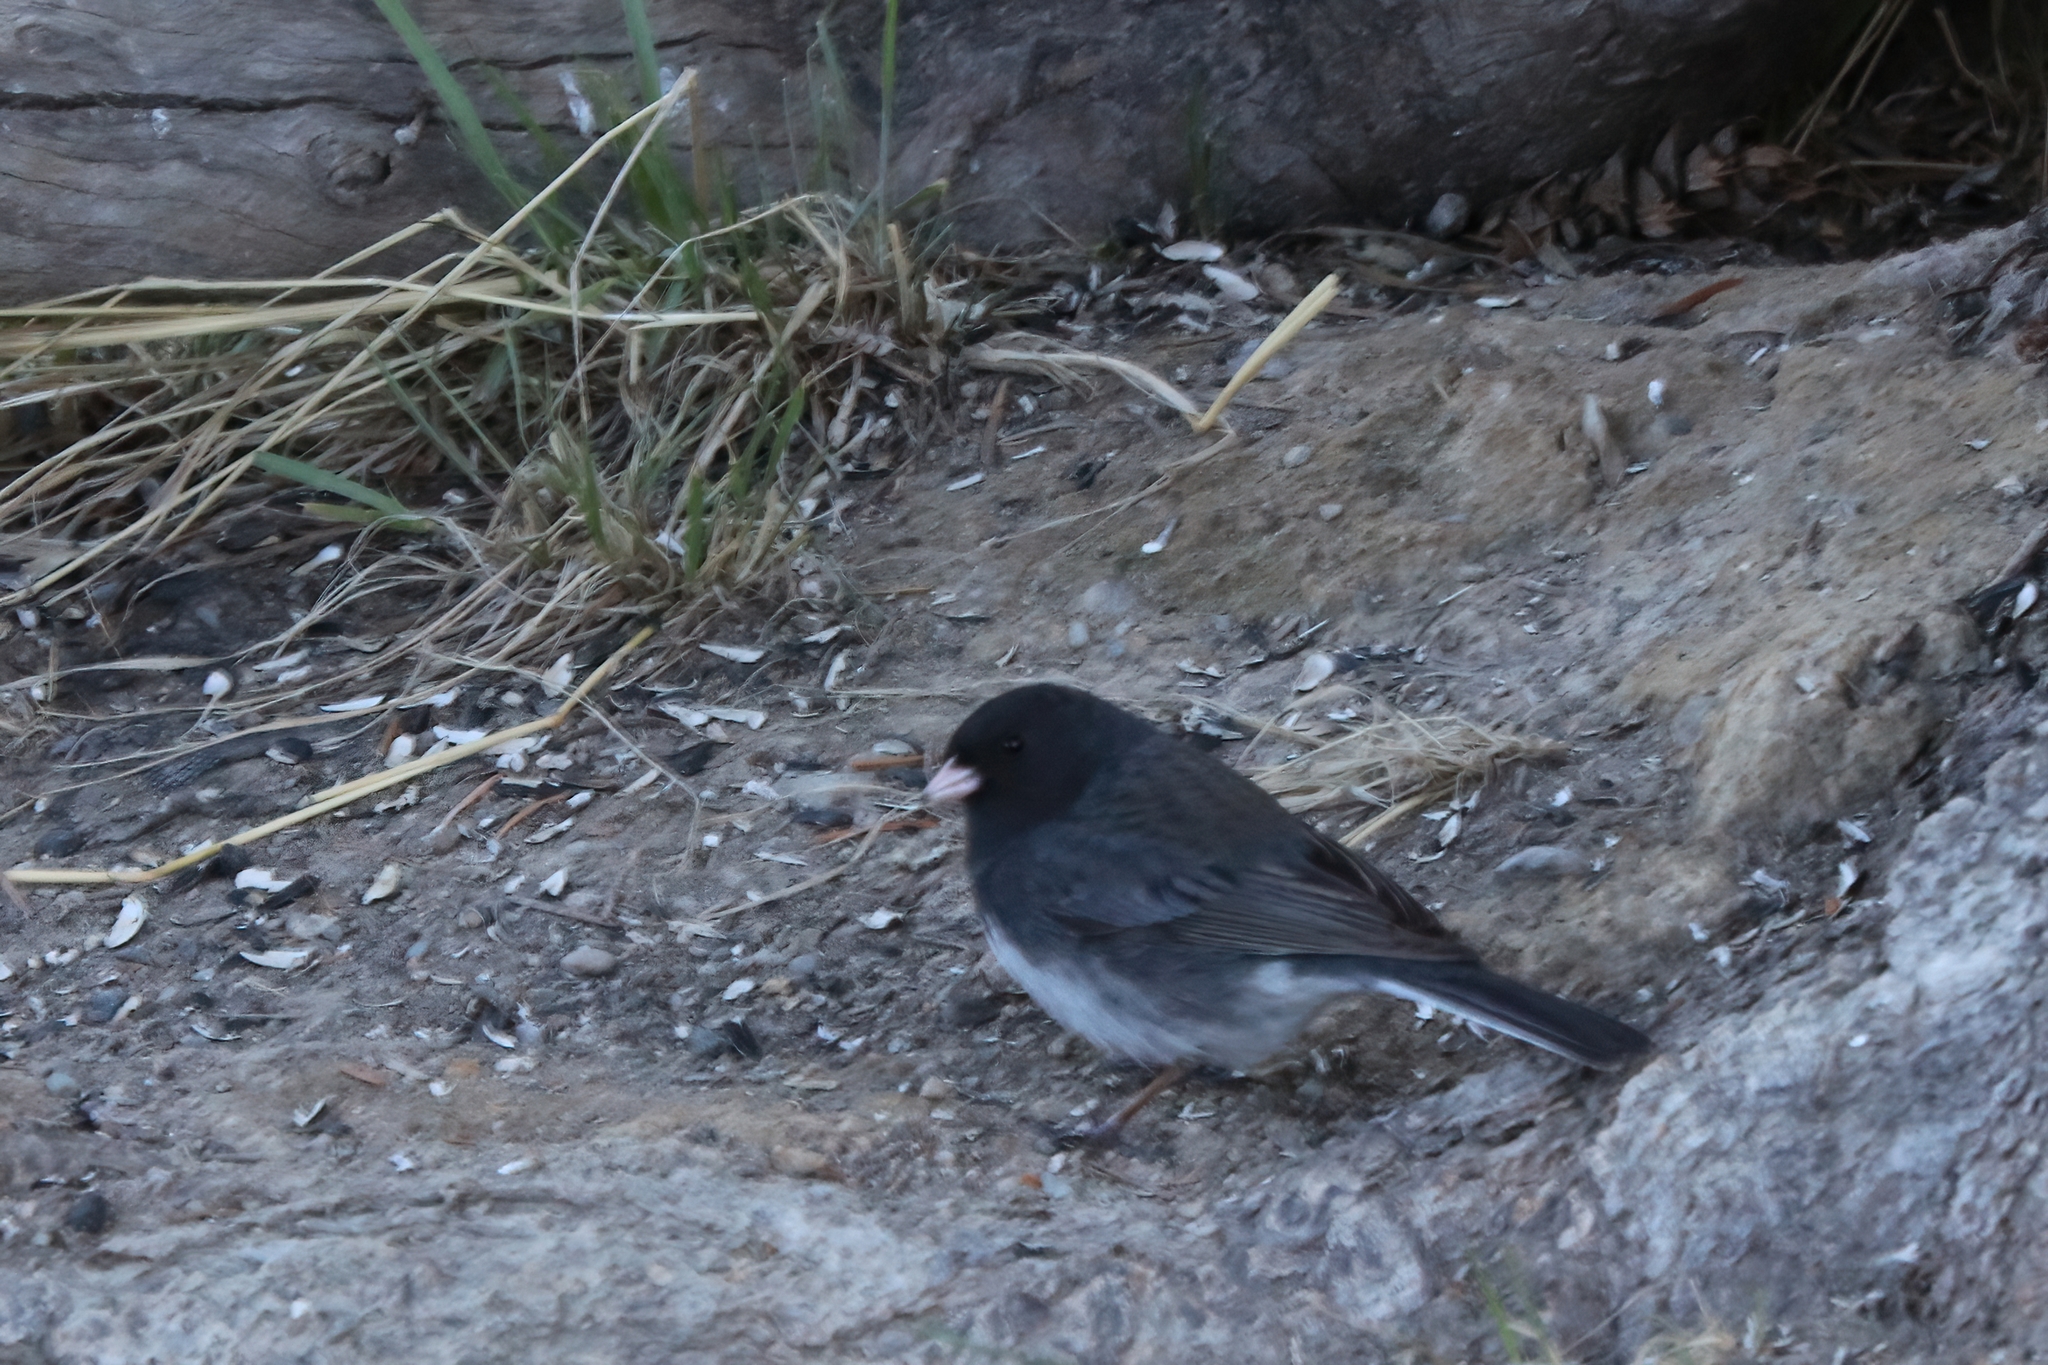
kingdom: Animalia
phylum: Chordata
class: Aves
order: Passeriformes
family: Passerellidae
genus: Junco
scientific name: Junco hyemalis
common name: Dark-eyed junco
